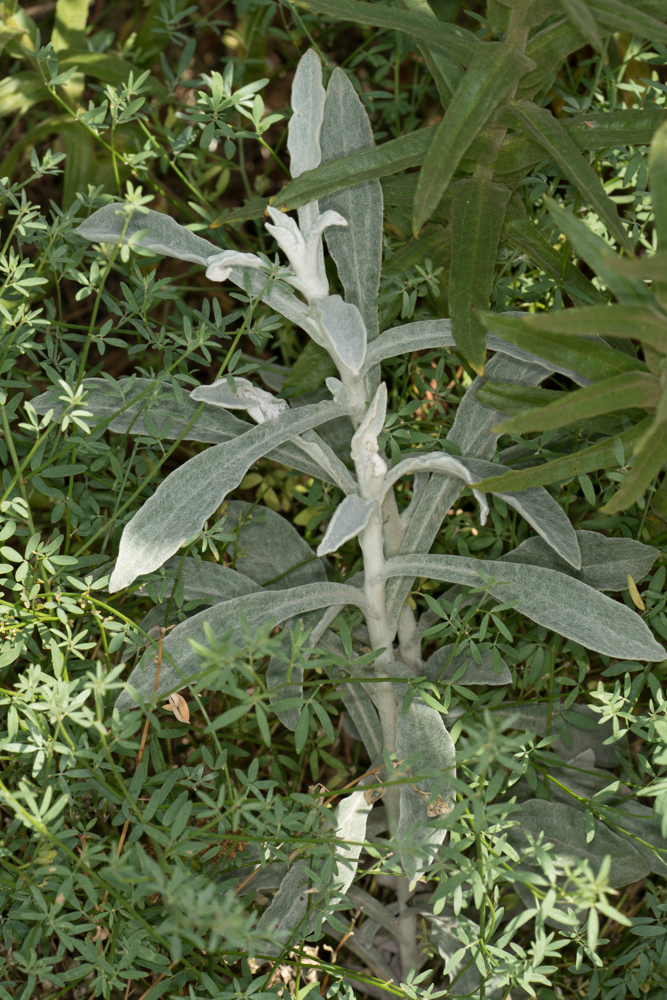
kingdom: Plantae
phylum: Tracheophyta
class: Magnoliopsida
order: Asterales
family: Asteraceae
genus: Pseudognaphalium
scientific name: Pseudognaphalium microcephalum
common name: San diego rabbit-tobacco
